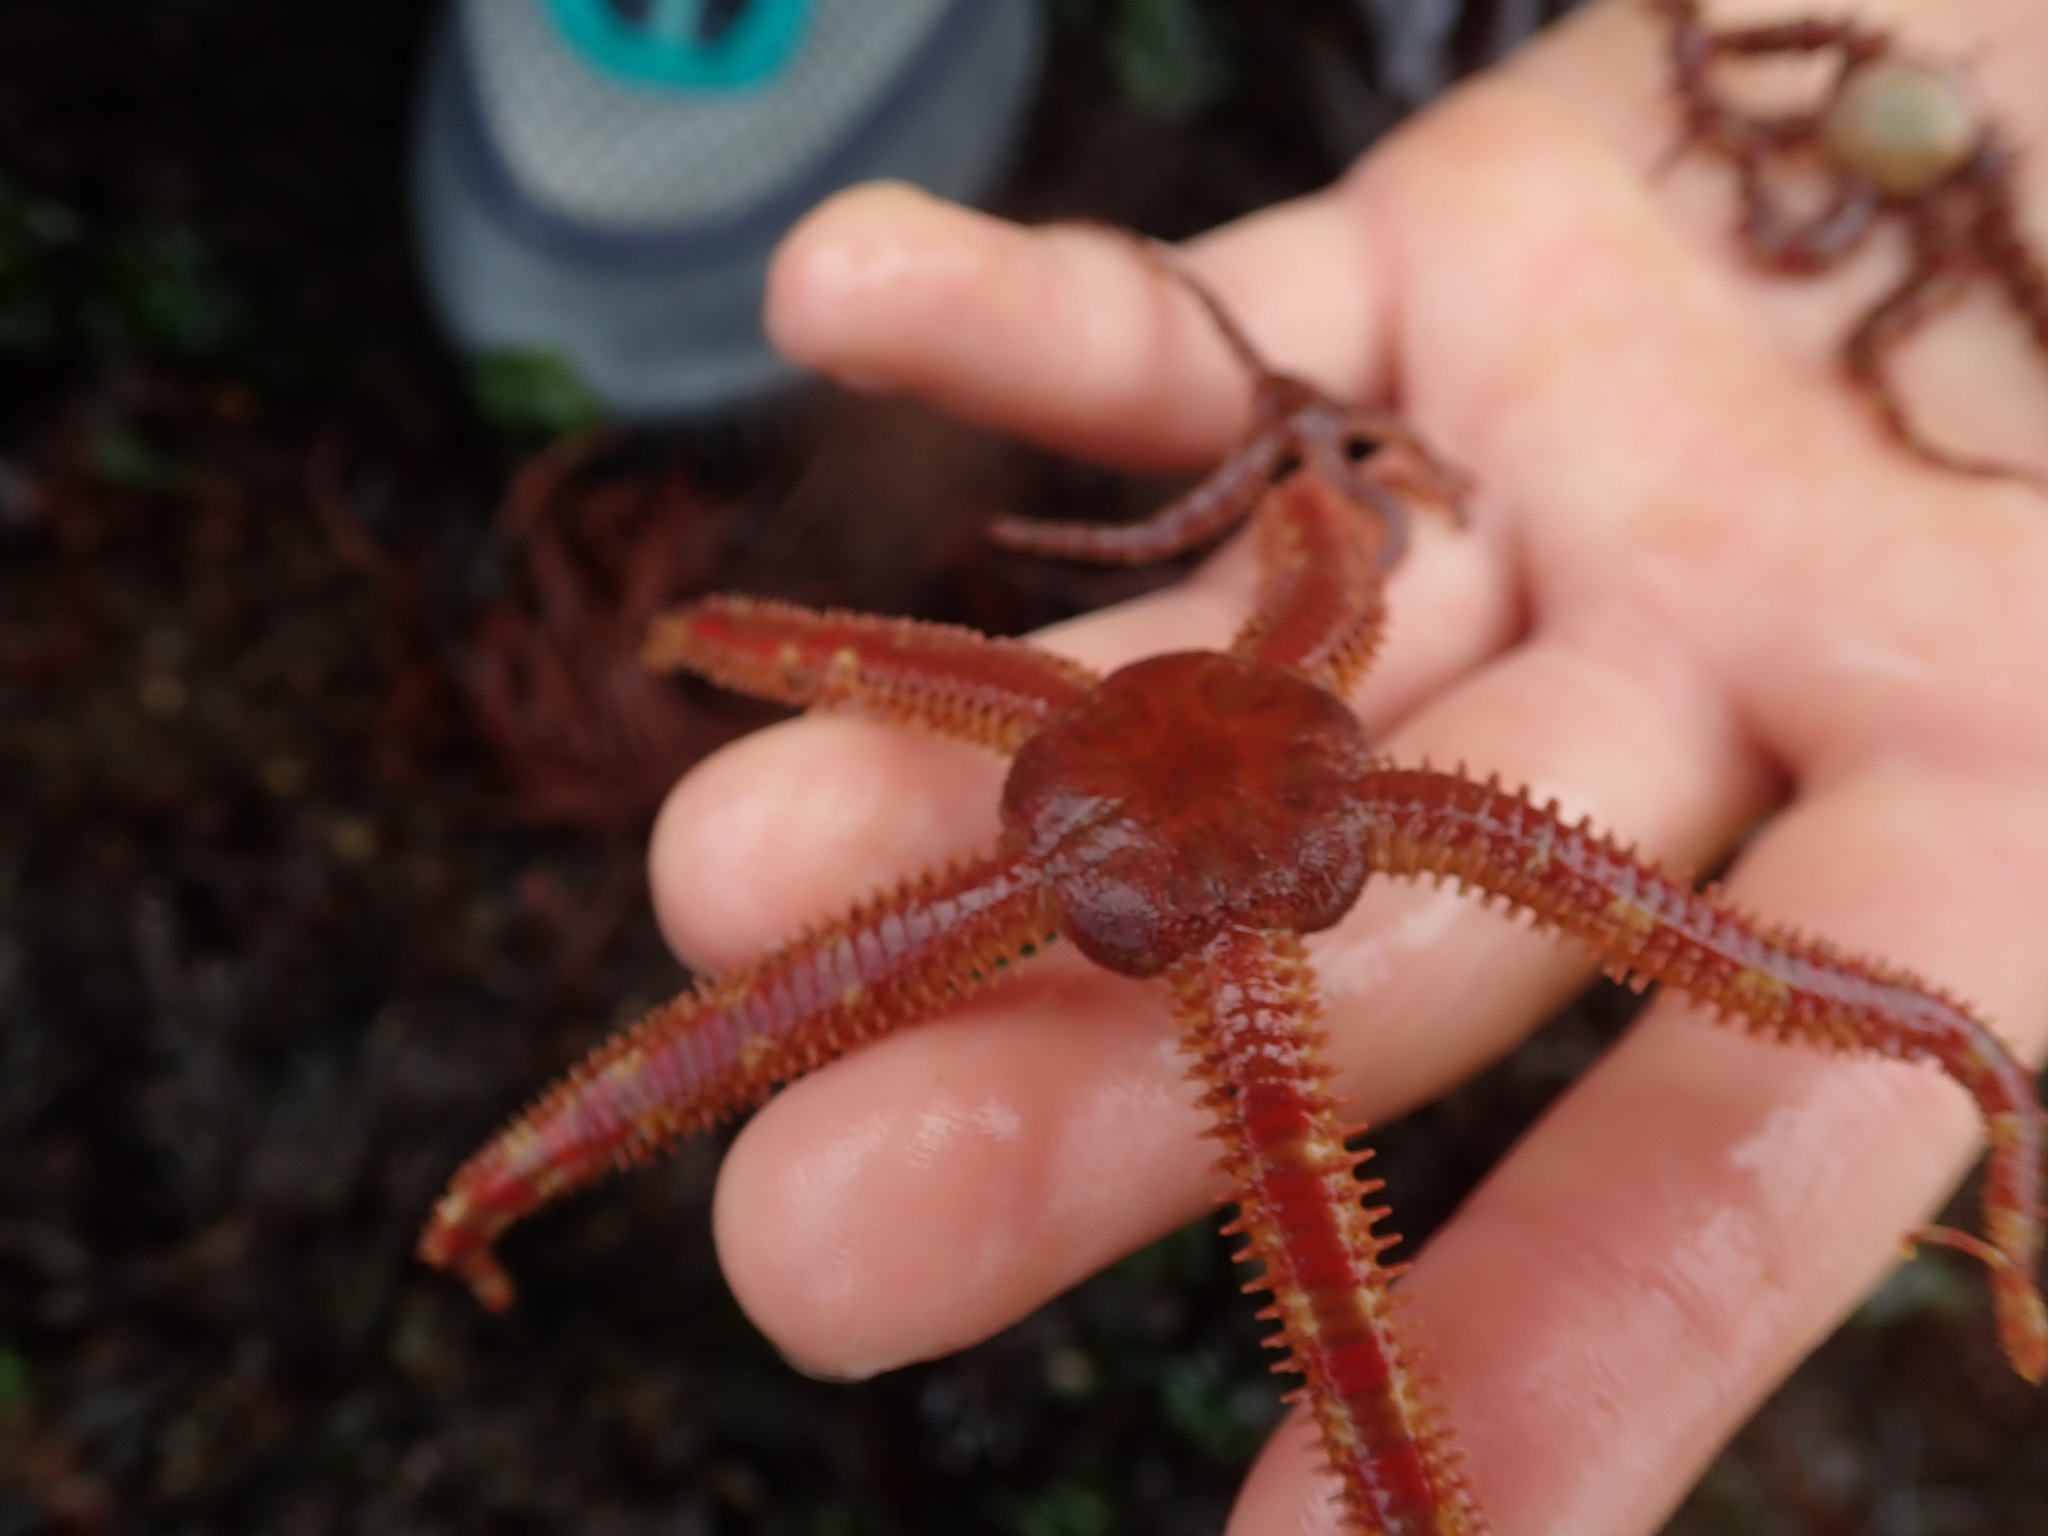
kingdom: Animalia
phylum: Echinodermata
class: Ophiuroidea
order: Amphilepidida
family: Ophiopholidae
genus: Ophiopholis
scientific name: Ophiopholis aculeata
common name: Crevice brittlestar
